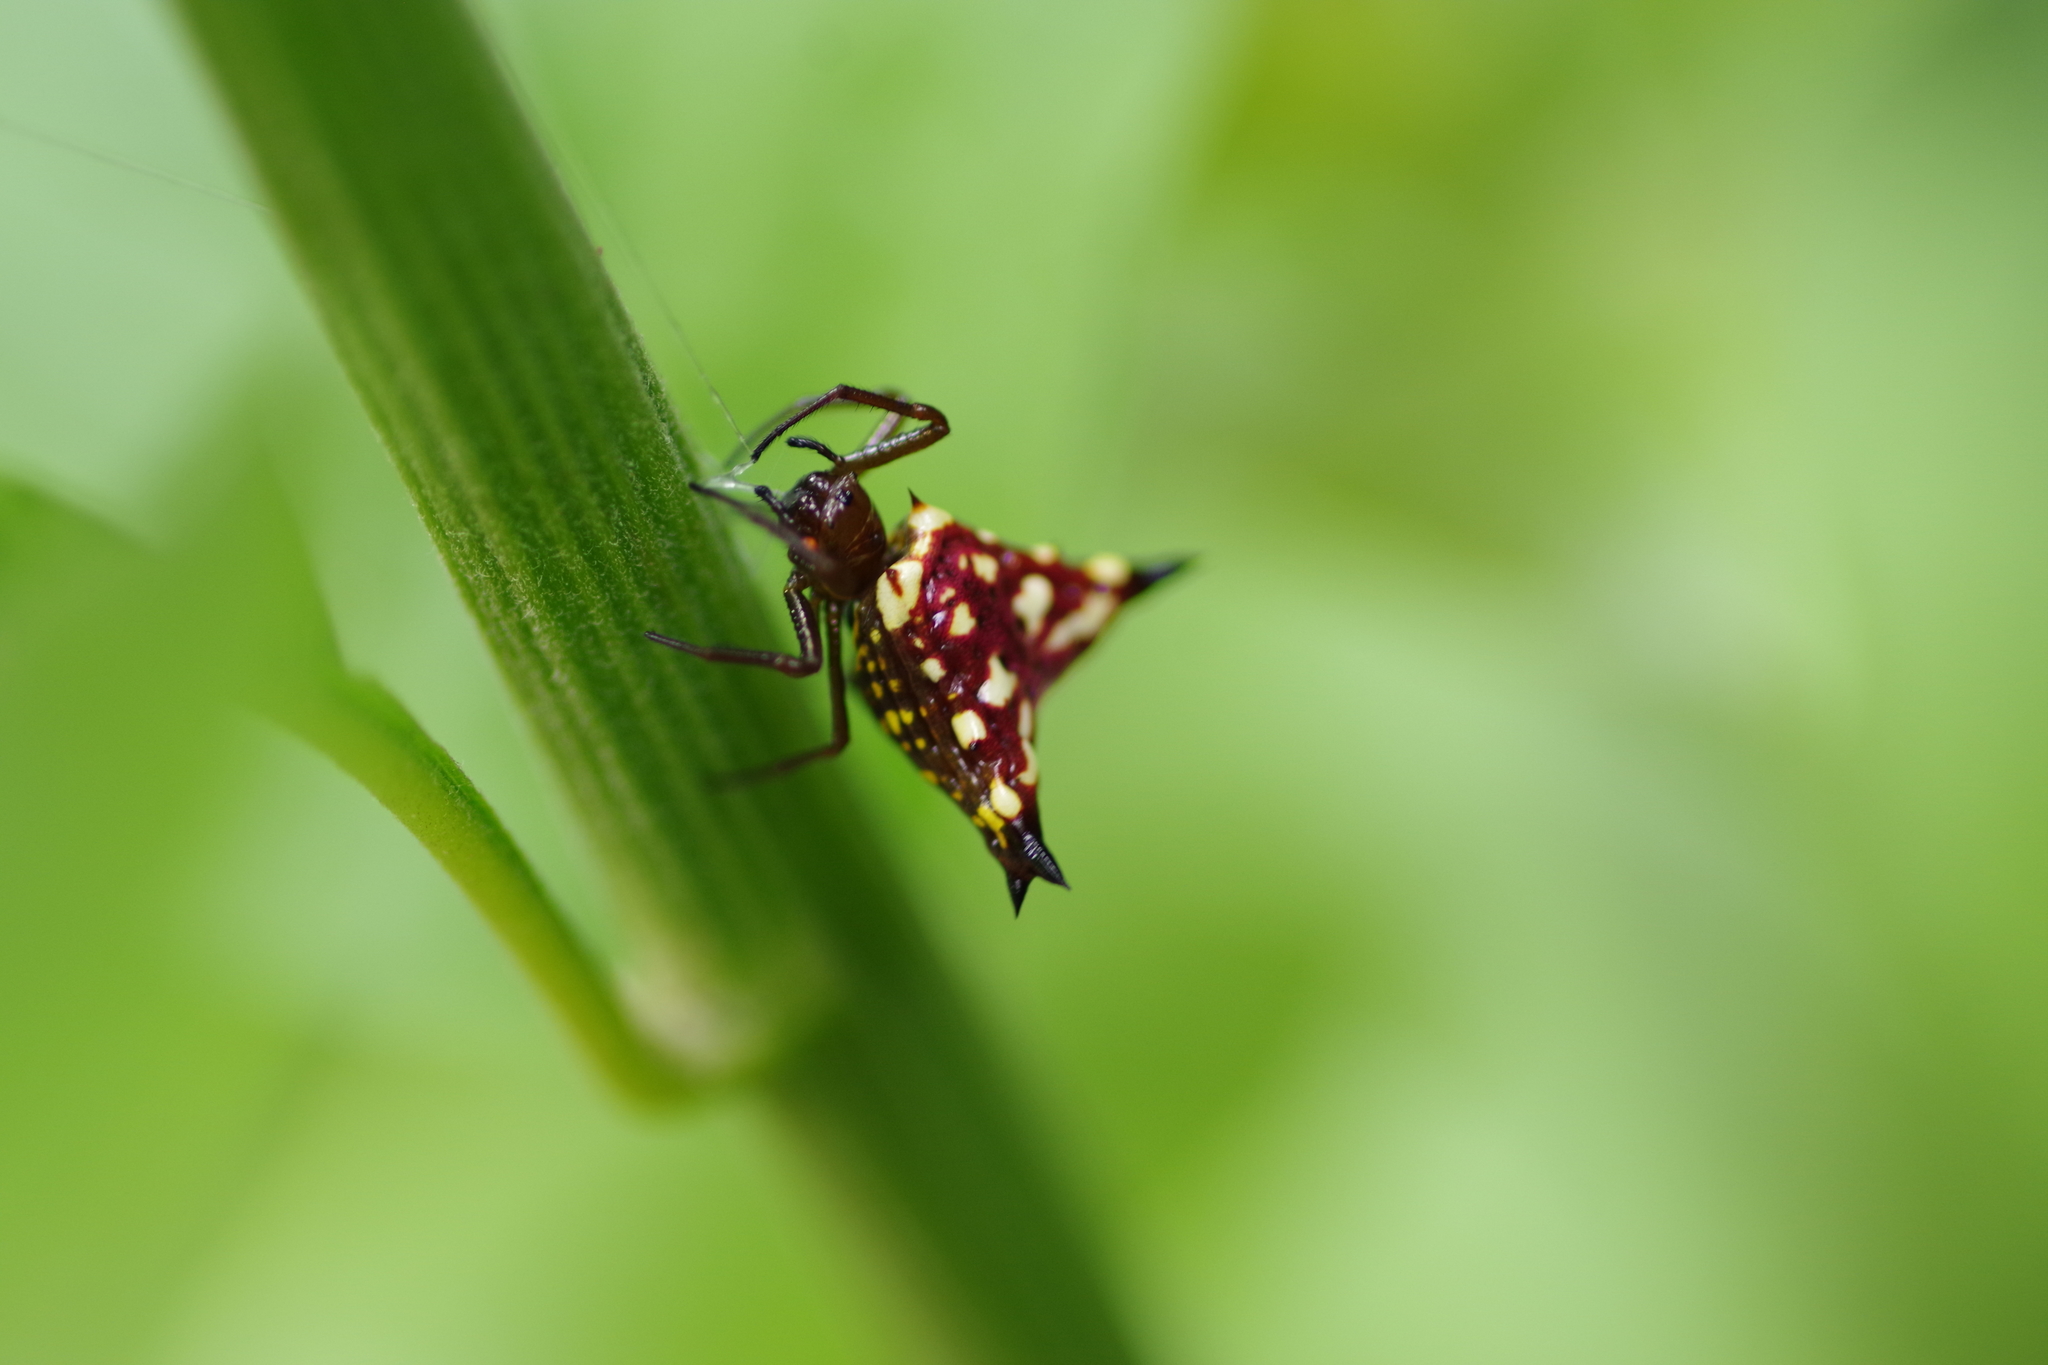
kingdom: Animalia
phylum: Arthropoda
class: Arachnida
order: Araneae
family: Araneidae
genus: Micrathena
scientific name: Micrathena lucasi
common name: Orb weavers
